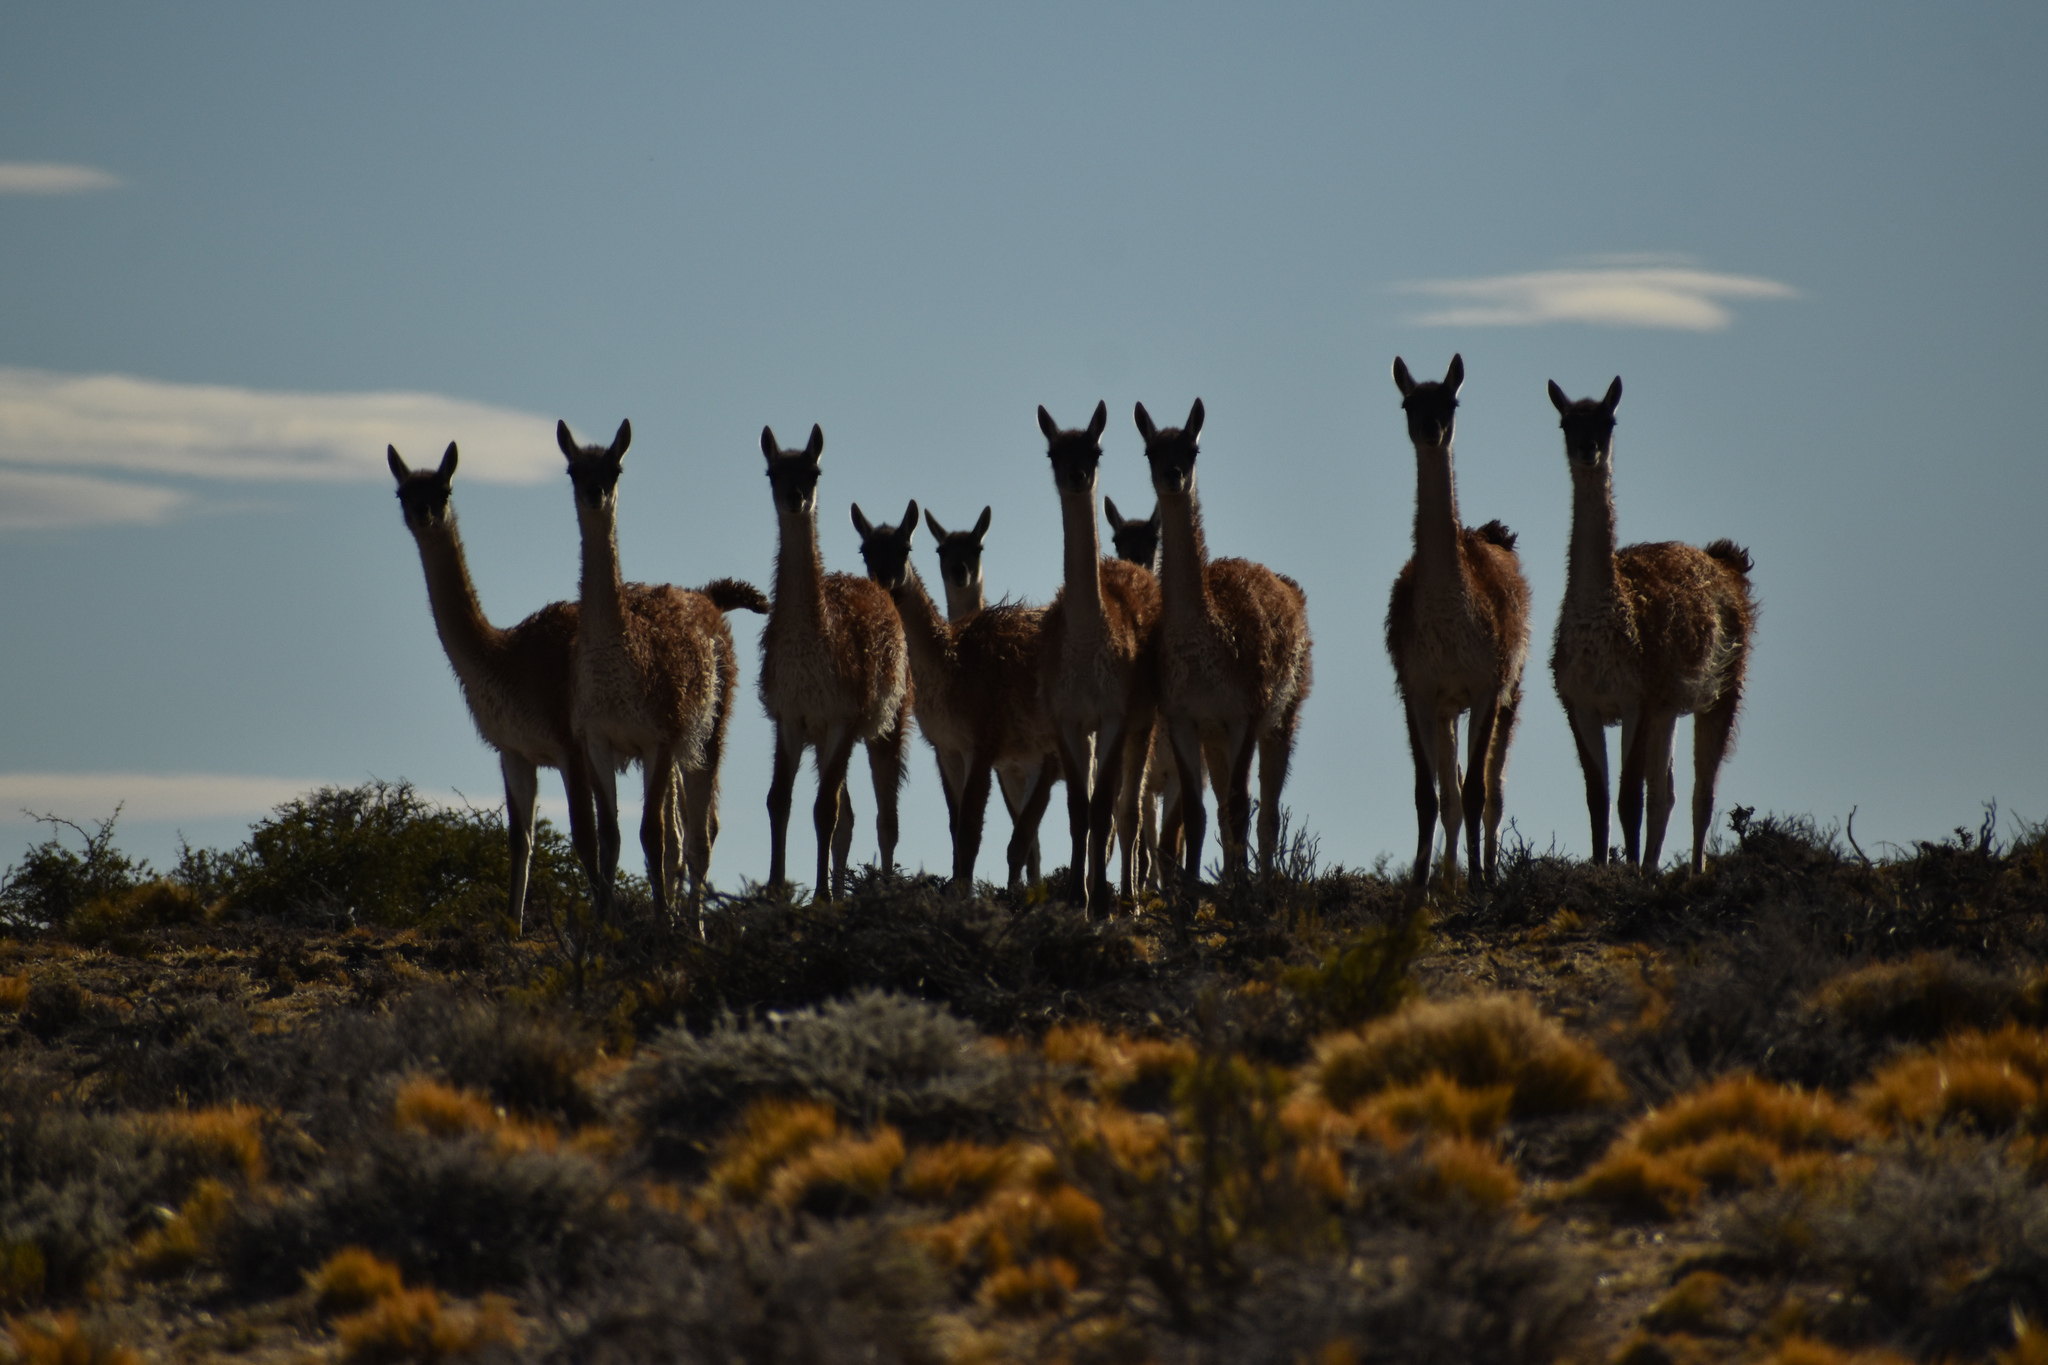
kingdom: Animalia
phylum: Chordata
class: Mammalia
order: Artiodactyla
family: Camelidae
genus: Lama
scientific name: Lama glama
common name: Llama
